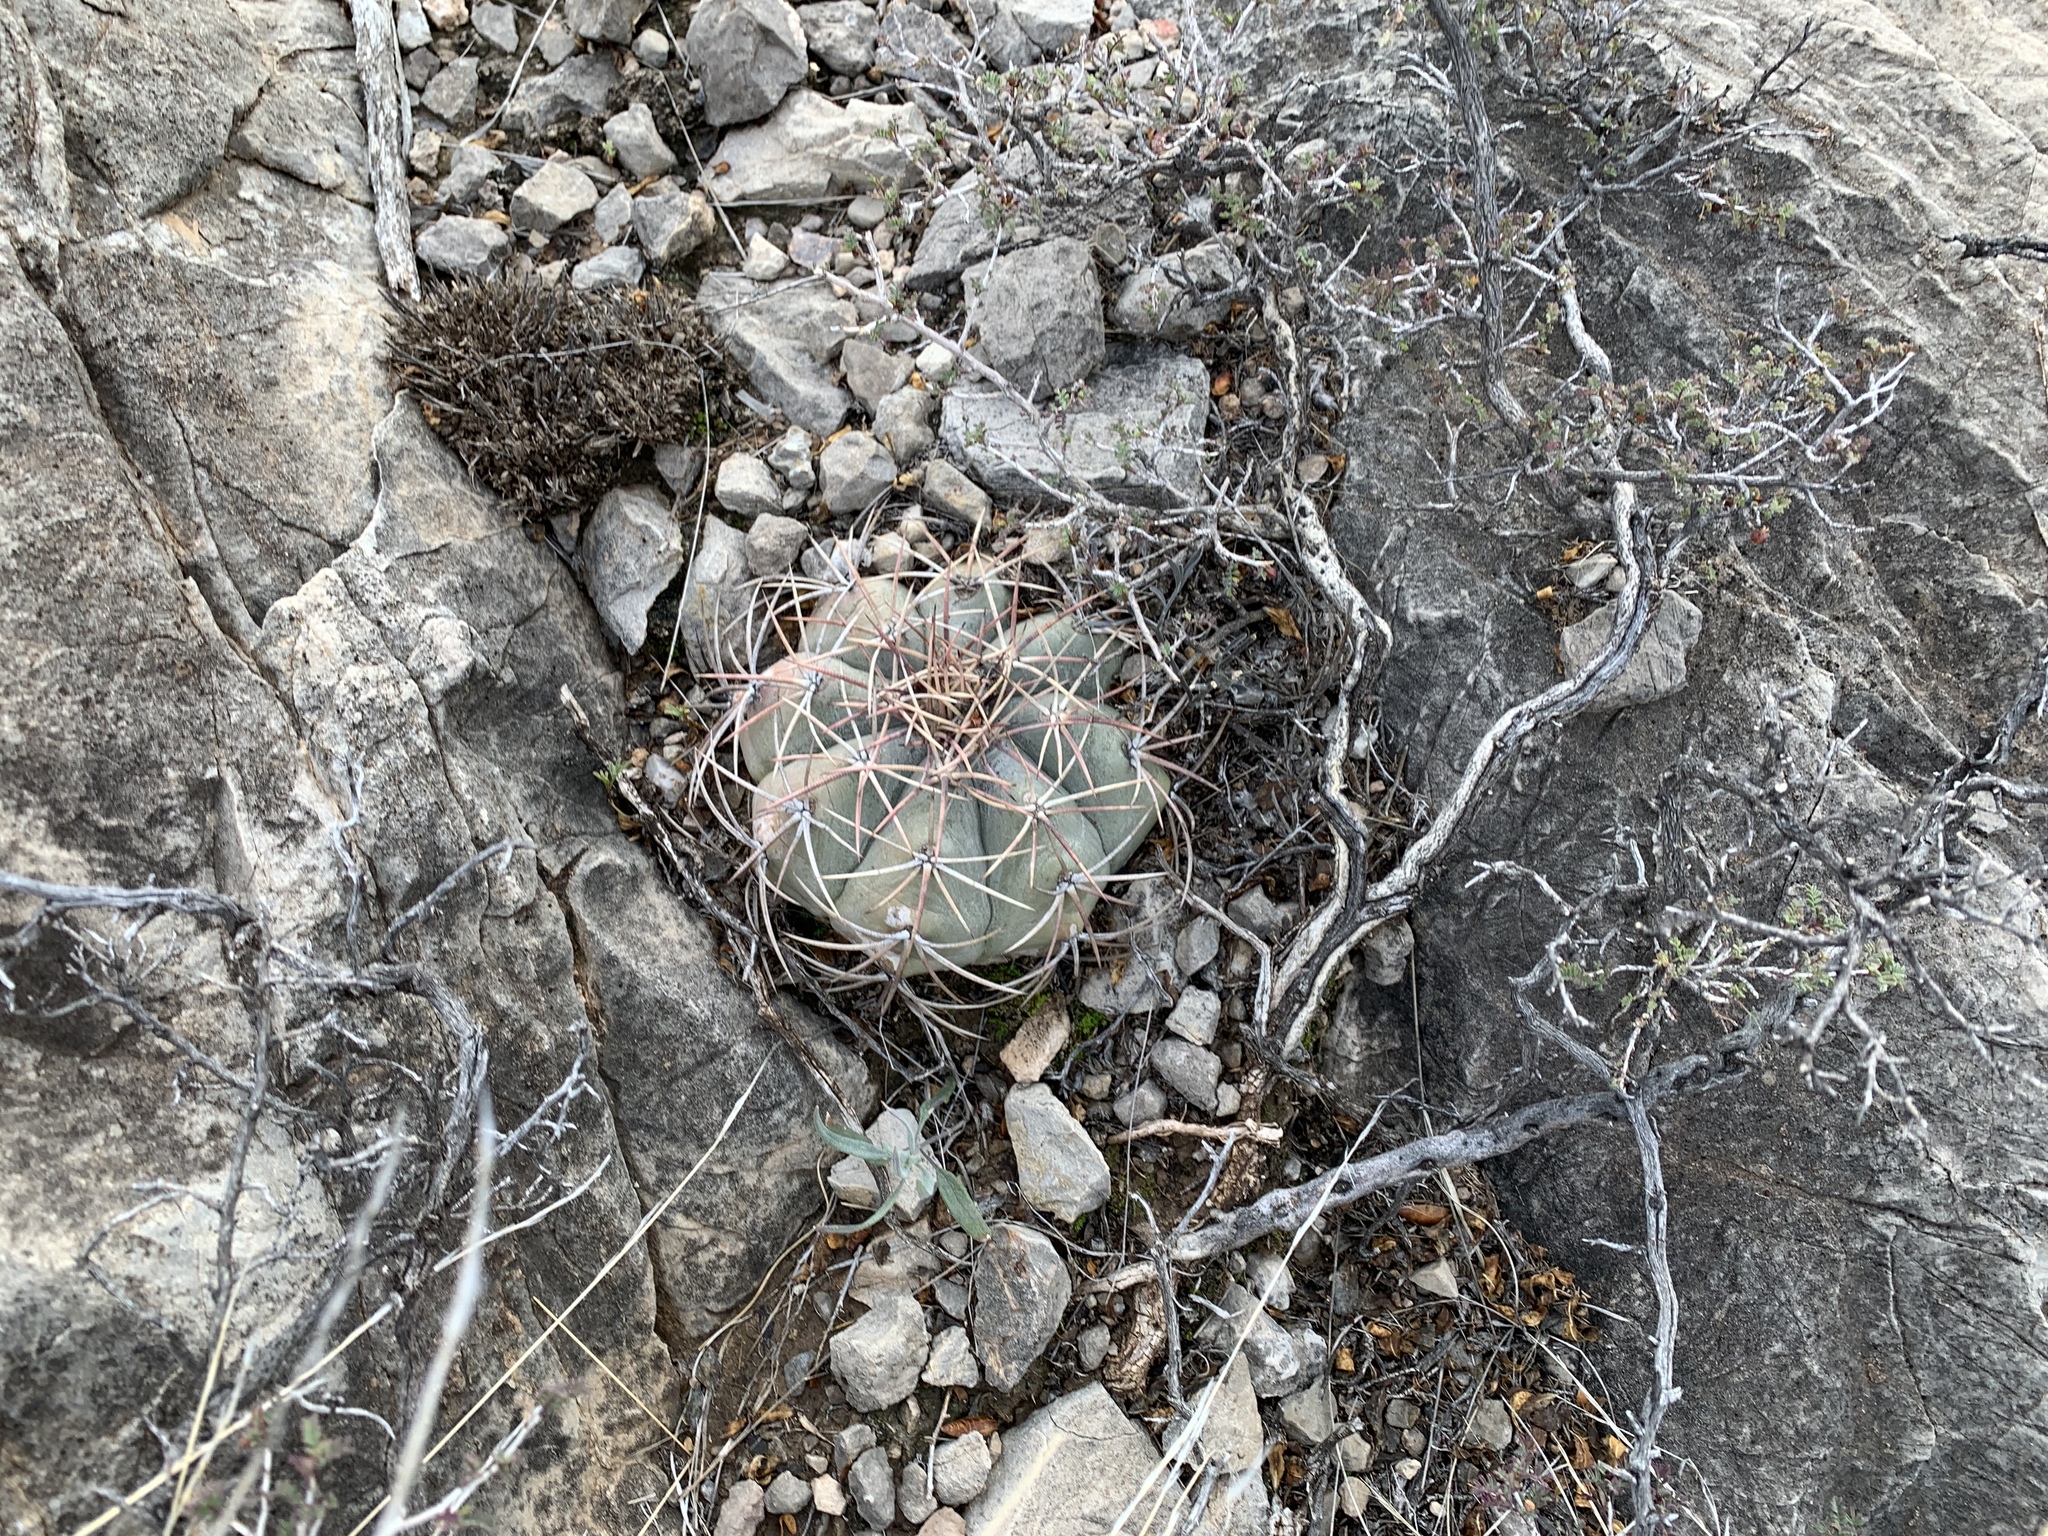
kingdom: Plantae
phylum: Tracheophyta
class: Magnoliopsida
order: Caryophyllales
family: Cactaceae
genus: Echinocactus
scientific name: Echinocactus horizonthalonius
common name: Devilshead
